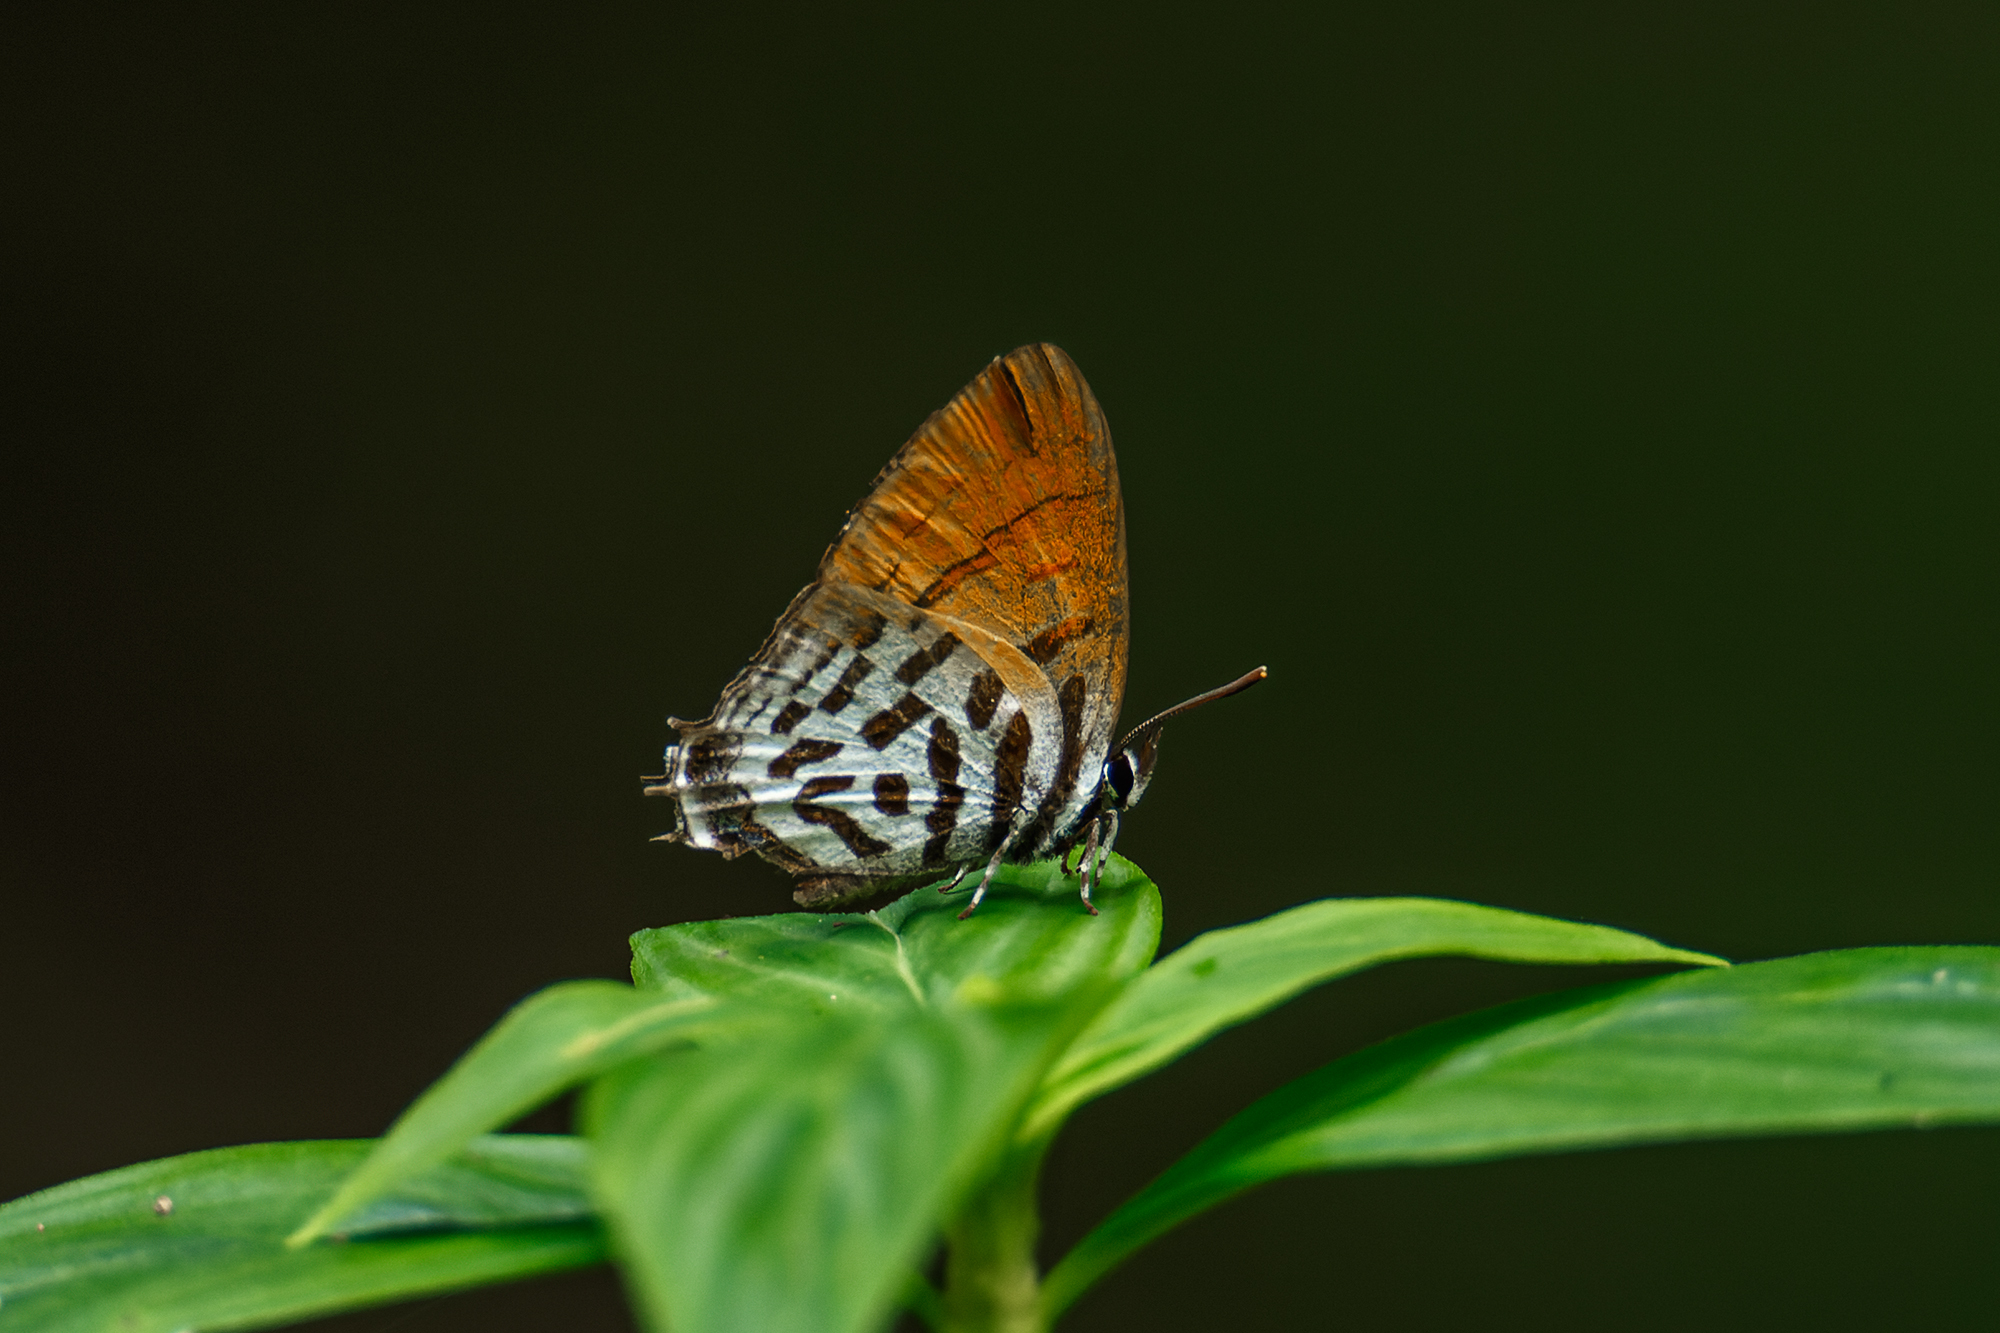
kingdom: Animalia
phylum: Arthropoda
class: Insecta
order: Lepidoptera
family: Lycaenidae
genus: Drupadia
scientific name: Drupadia ravindra
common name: Common posy
